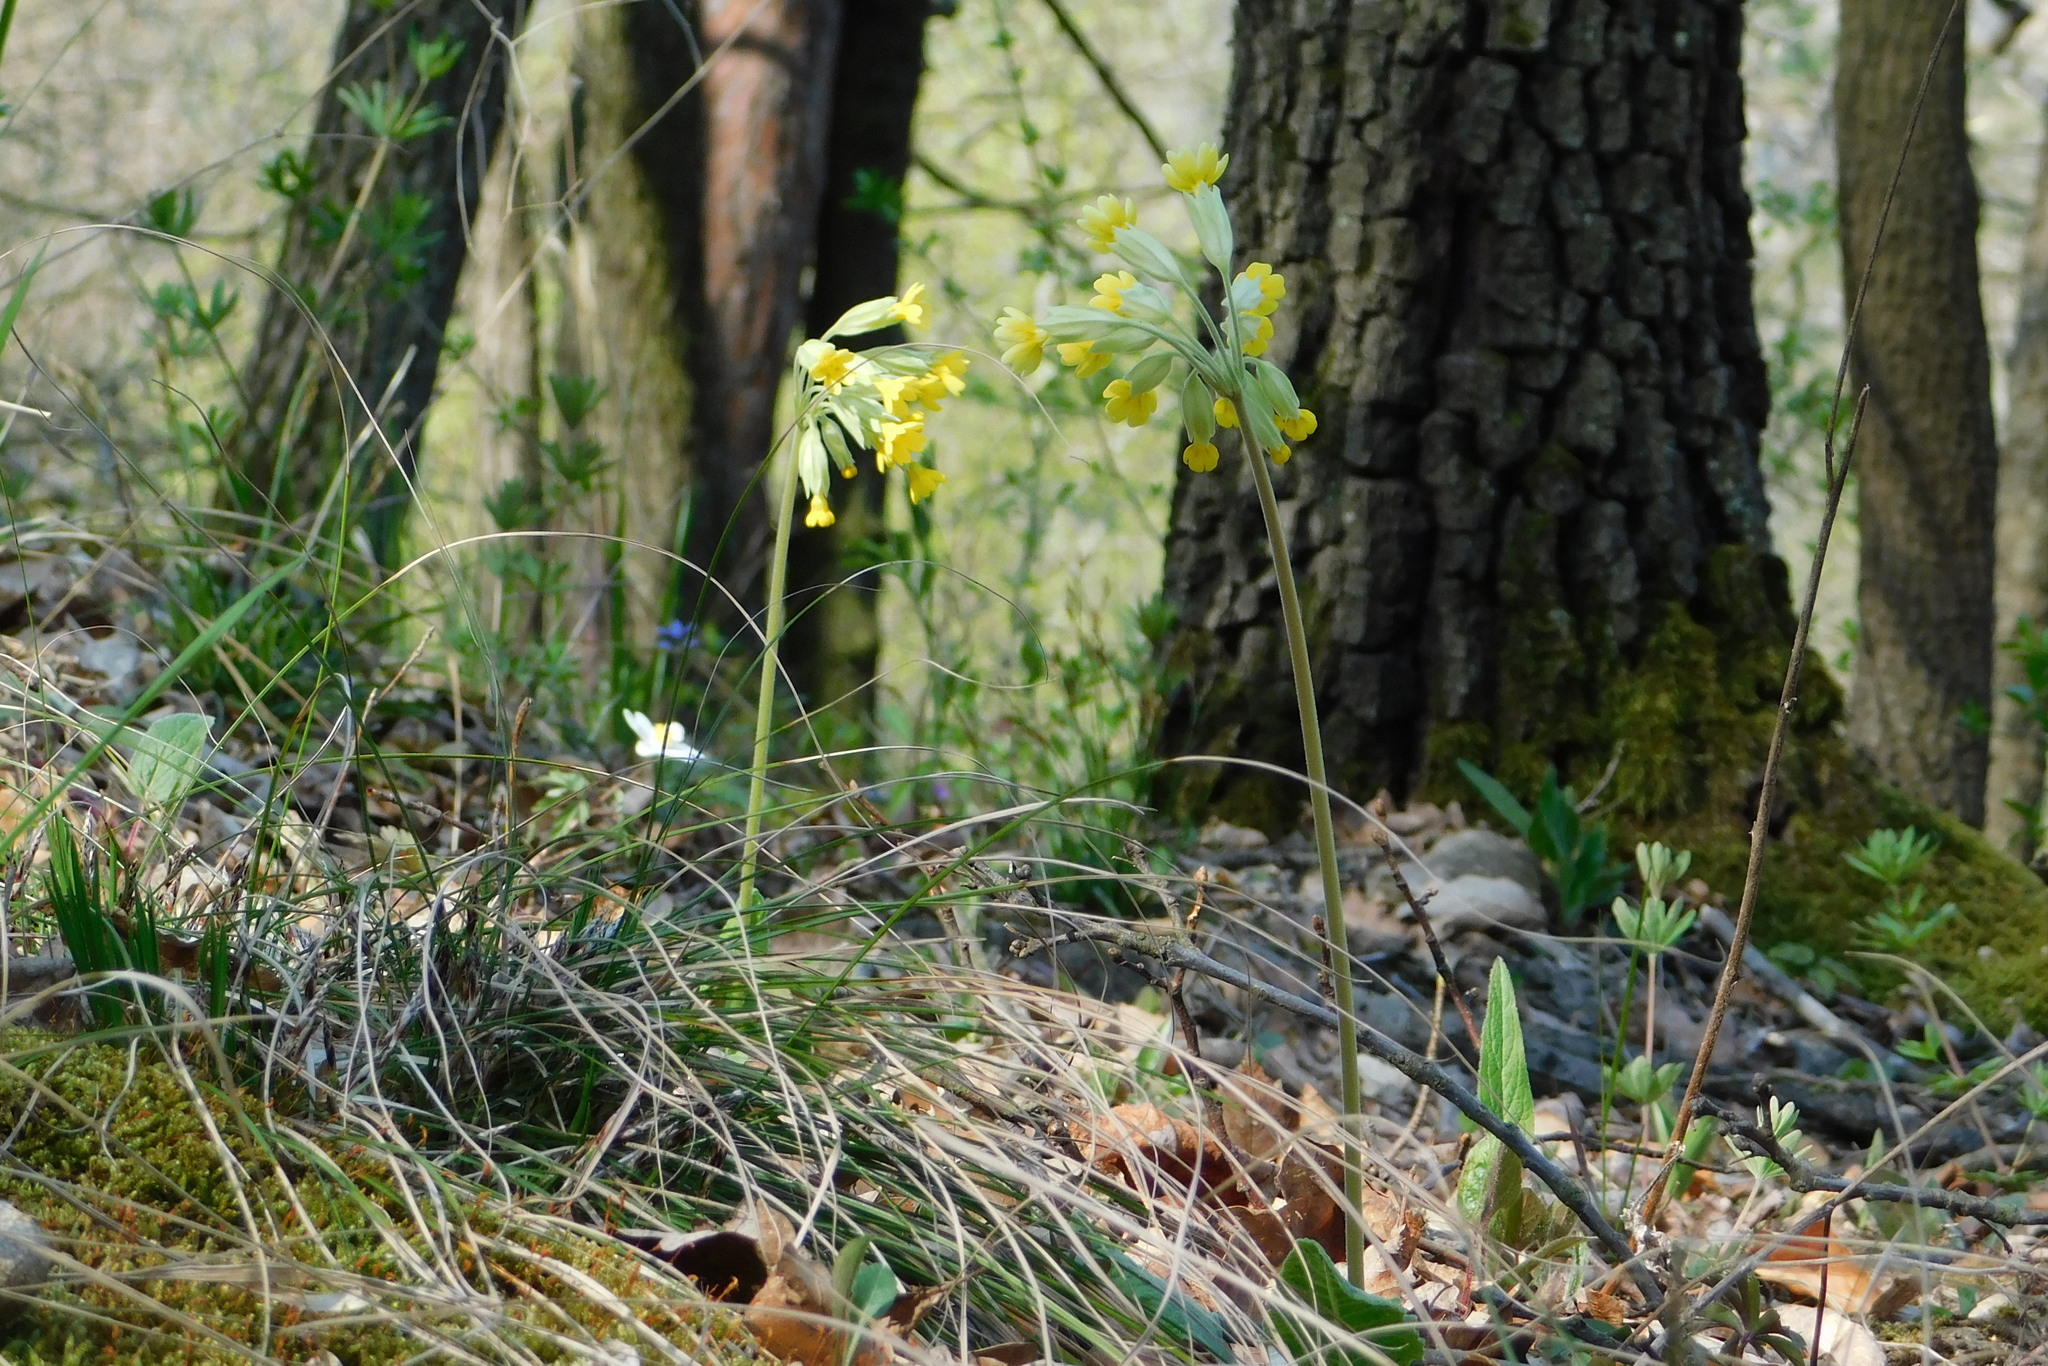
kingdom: Plantae
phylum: Tracheophyta
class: Magnoliopsida
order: Ericales
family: Primulaceae
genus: Primula
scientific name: Primula veris
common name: Cowslip
